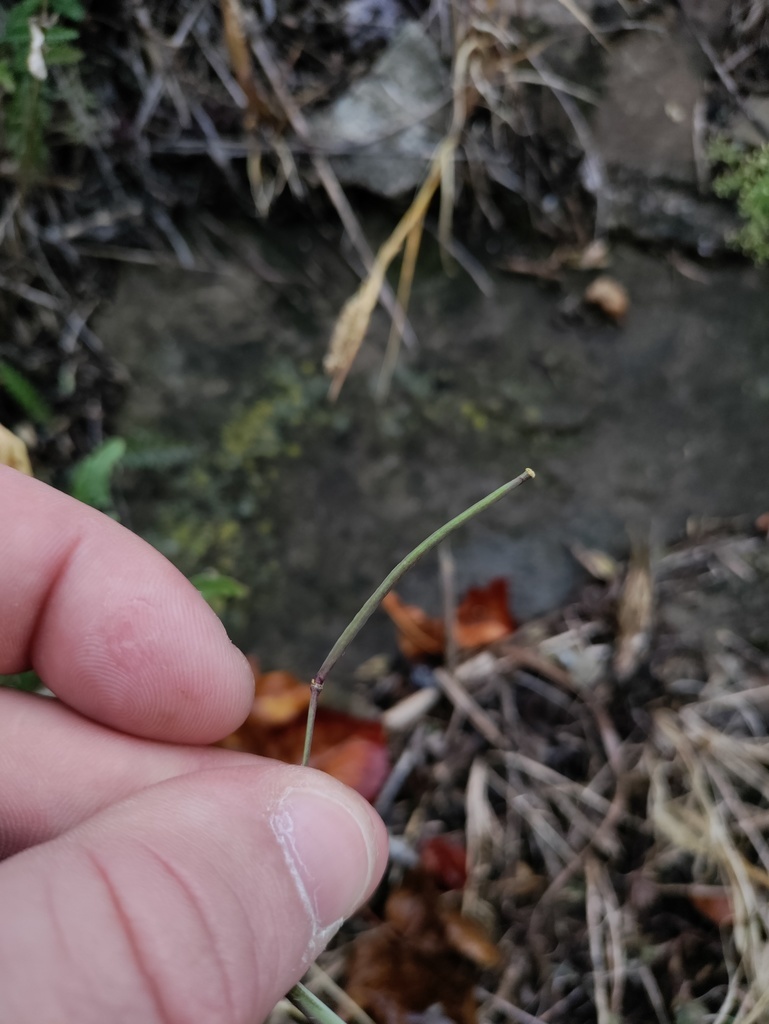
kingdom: Plantae
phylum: Tracheophyta
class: Magnoliopsida
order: Brassicales
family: Brassicaceae
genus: Diplotaxis
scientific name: Diplotaxis tenuifolia
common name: Perennial wall-rocket
